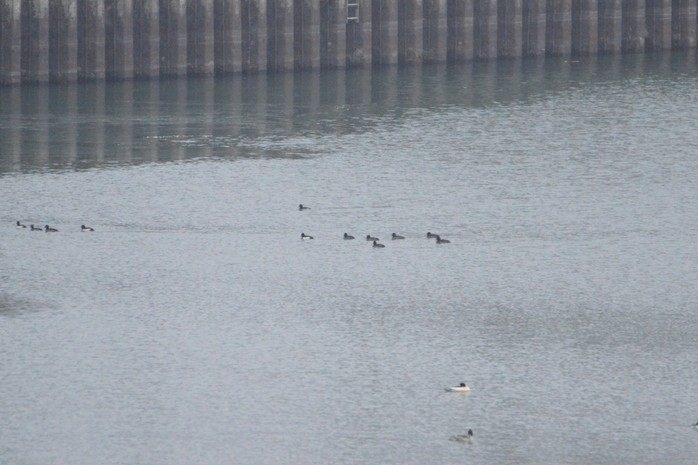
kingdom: Animalia
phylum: Chordata
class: Aves
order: Anseriformes
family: Anatidae
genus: Aythya
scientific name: Aythya fuligula
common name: Tufted duck
